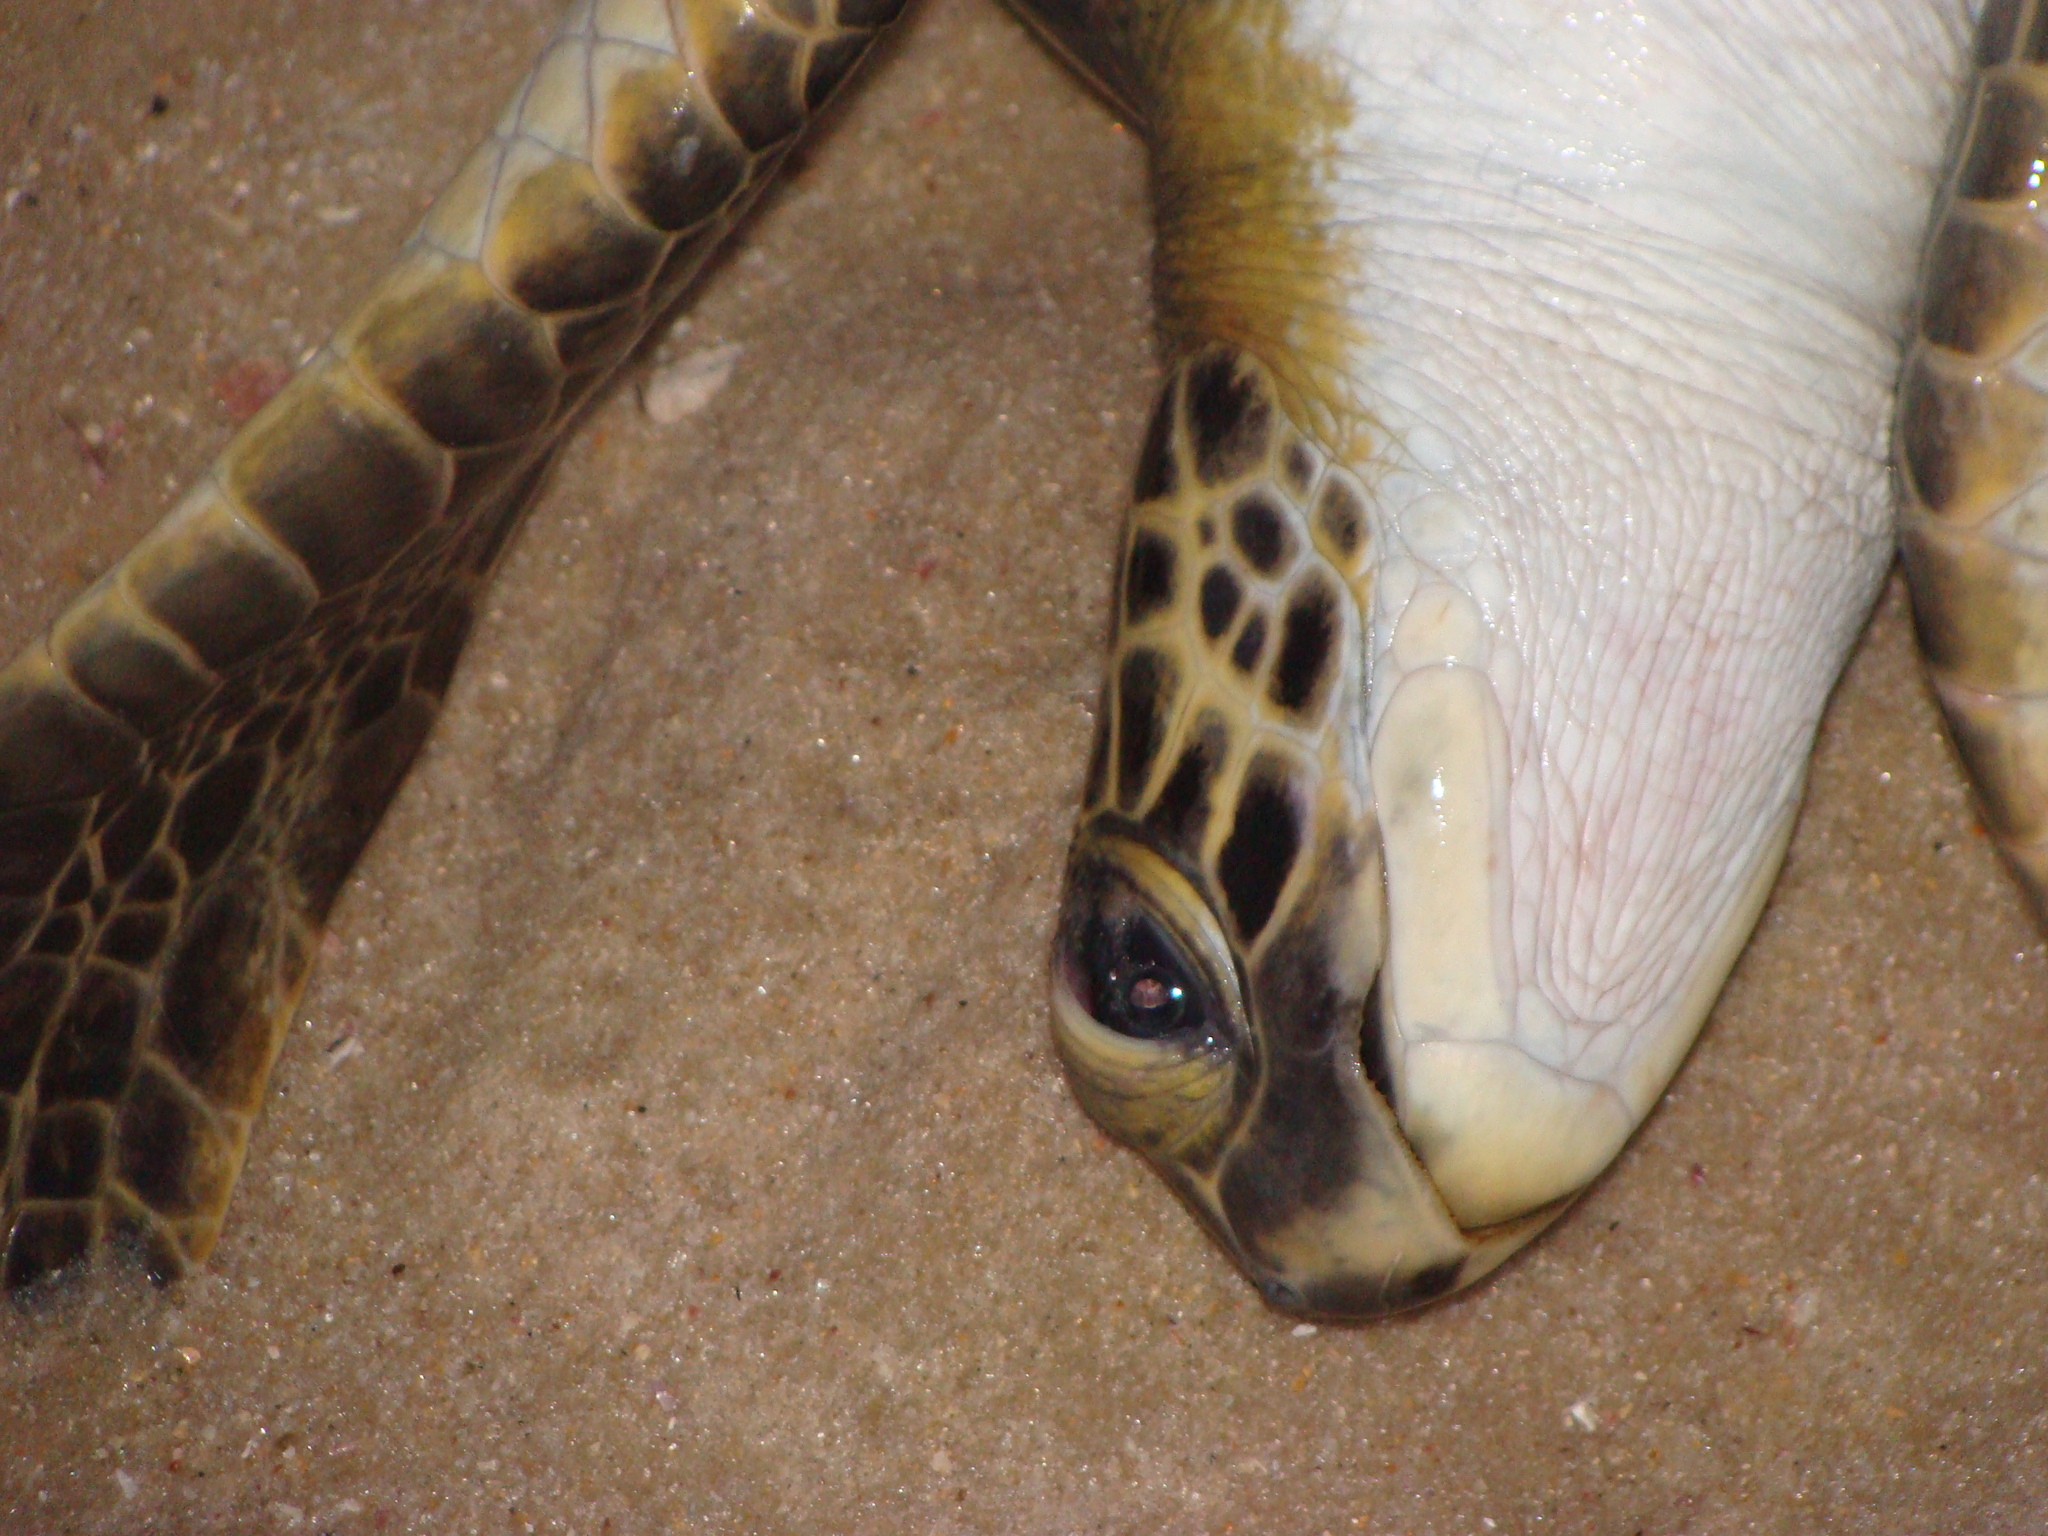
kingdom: Animalia
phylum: Chordata
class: Testudines
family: Cheloniidae
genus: Chelonia
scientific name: Chelonia mydas
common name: Green turtle
